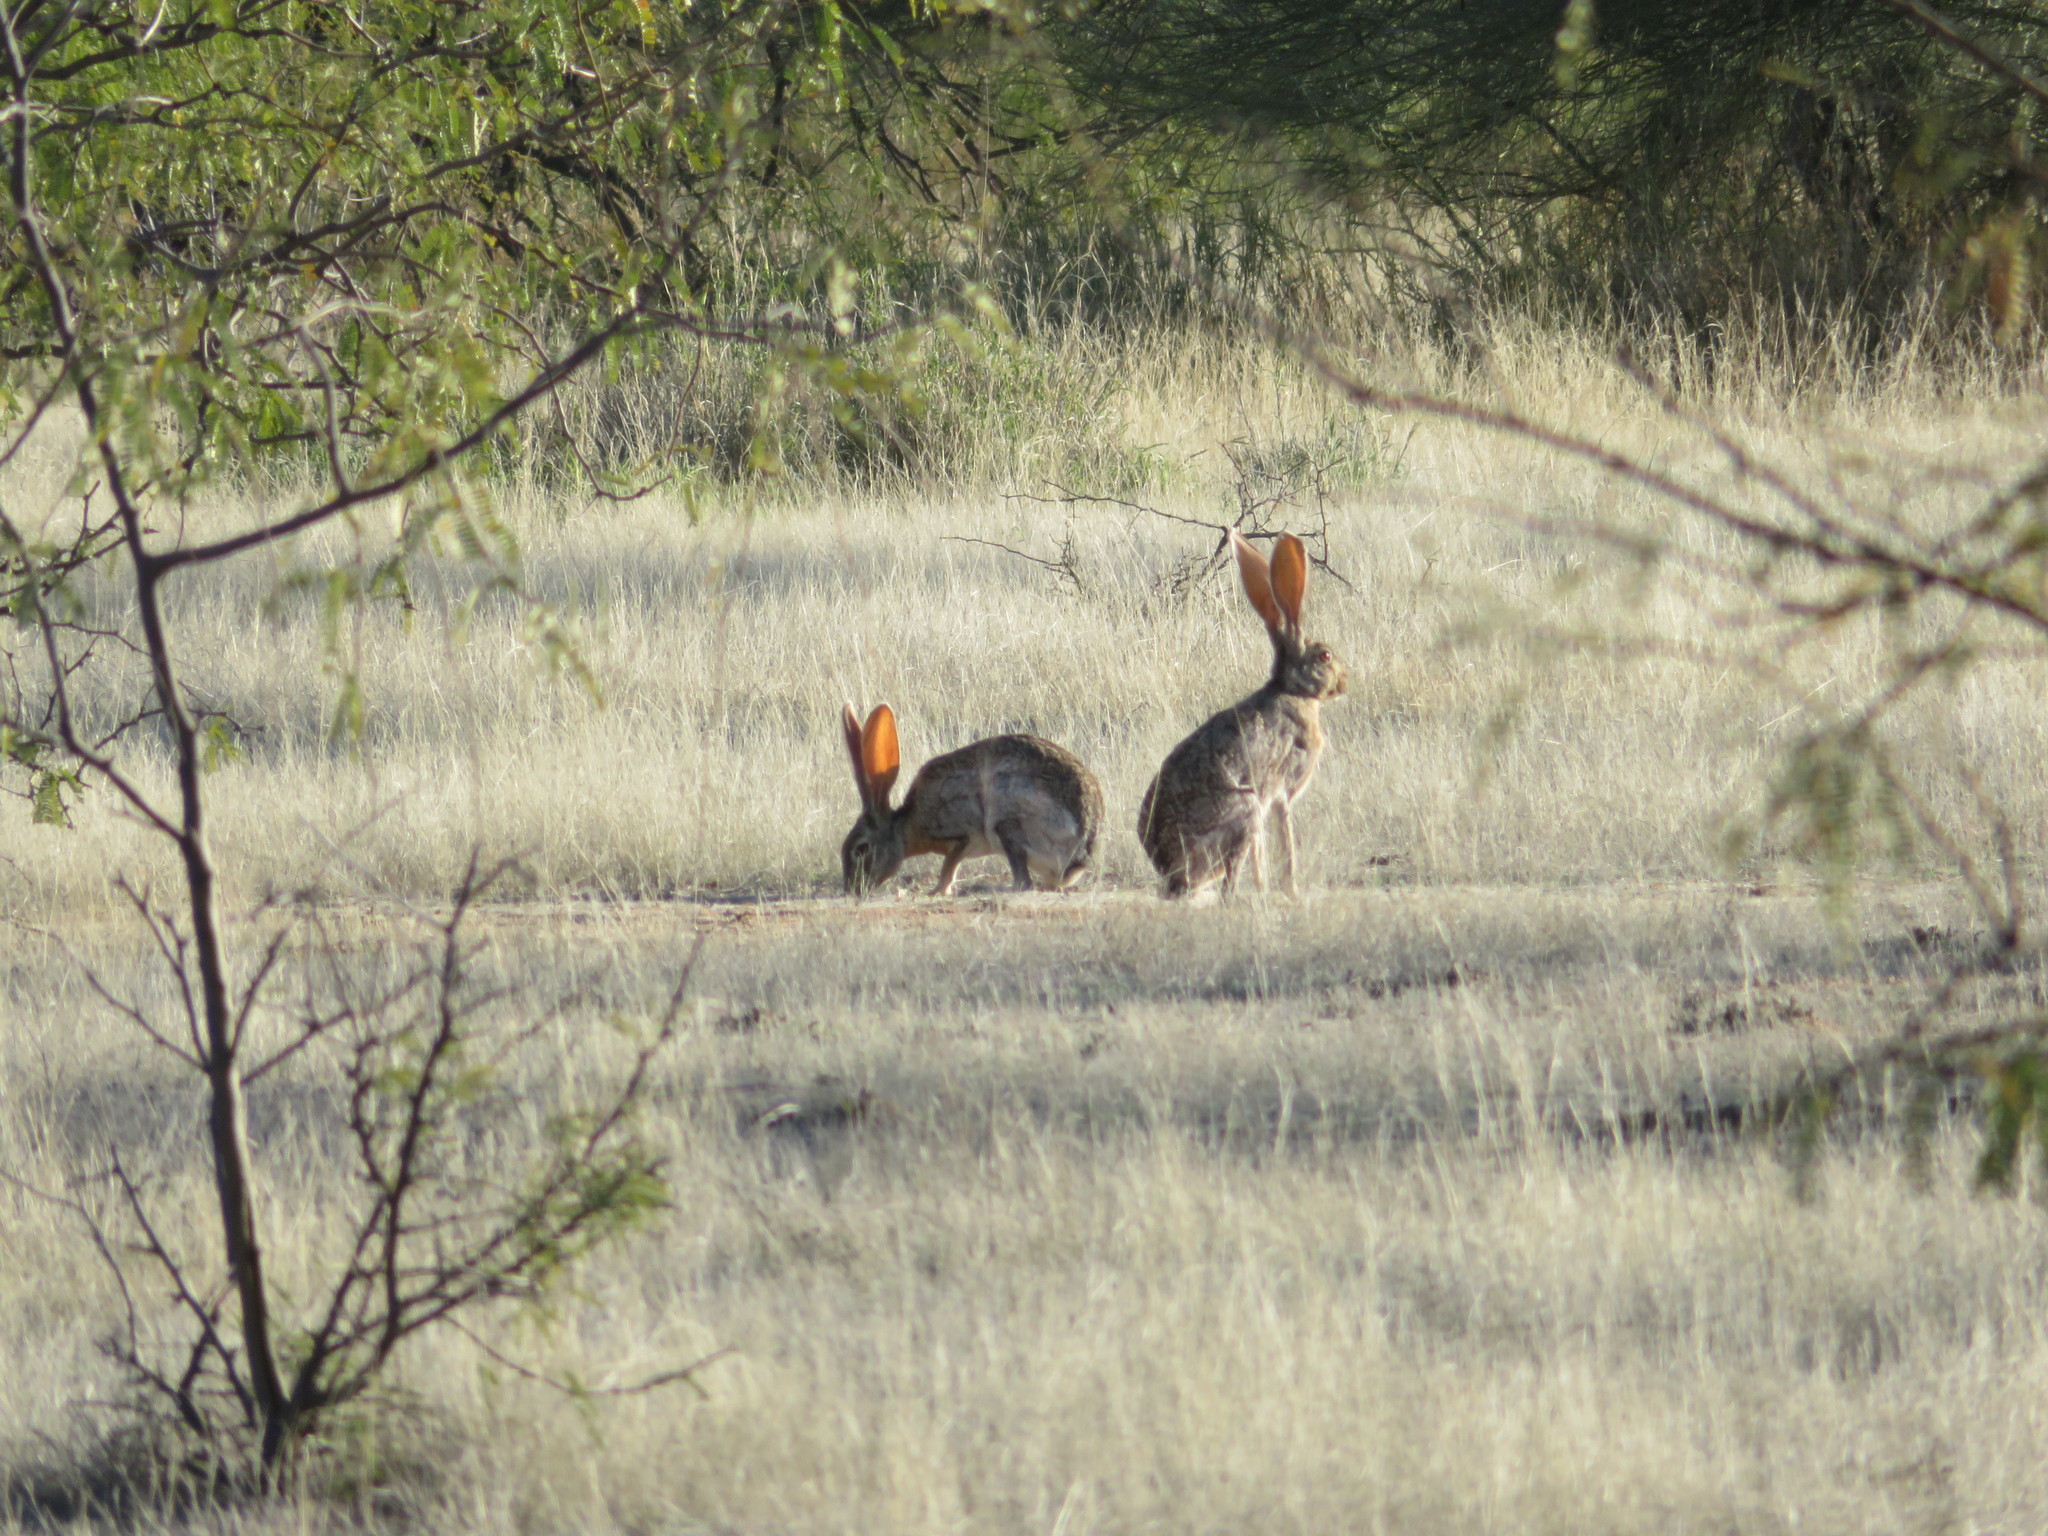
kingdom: Animalia
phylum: Chordata
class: Mammalia
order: Lagomorpha
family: Leporidae
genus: Lepus
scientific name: Lepus alleni
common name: Antelope jackrabbit
